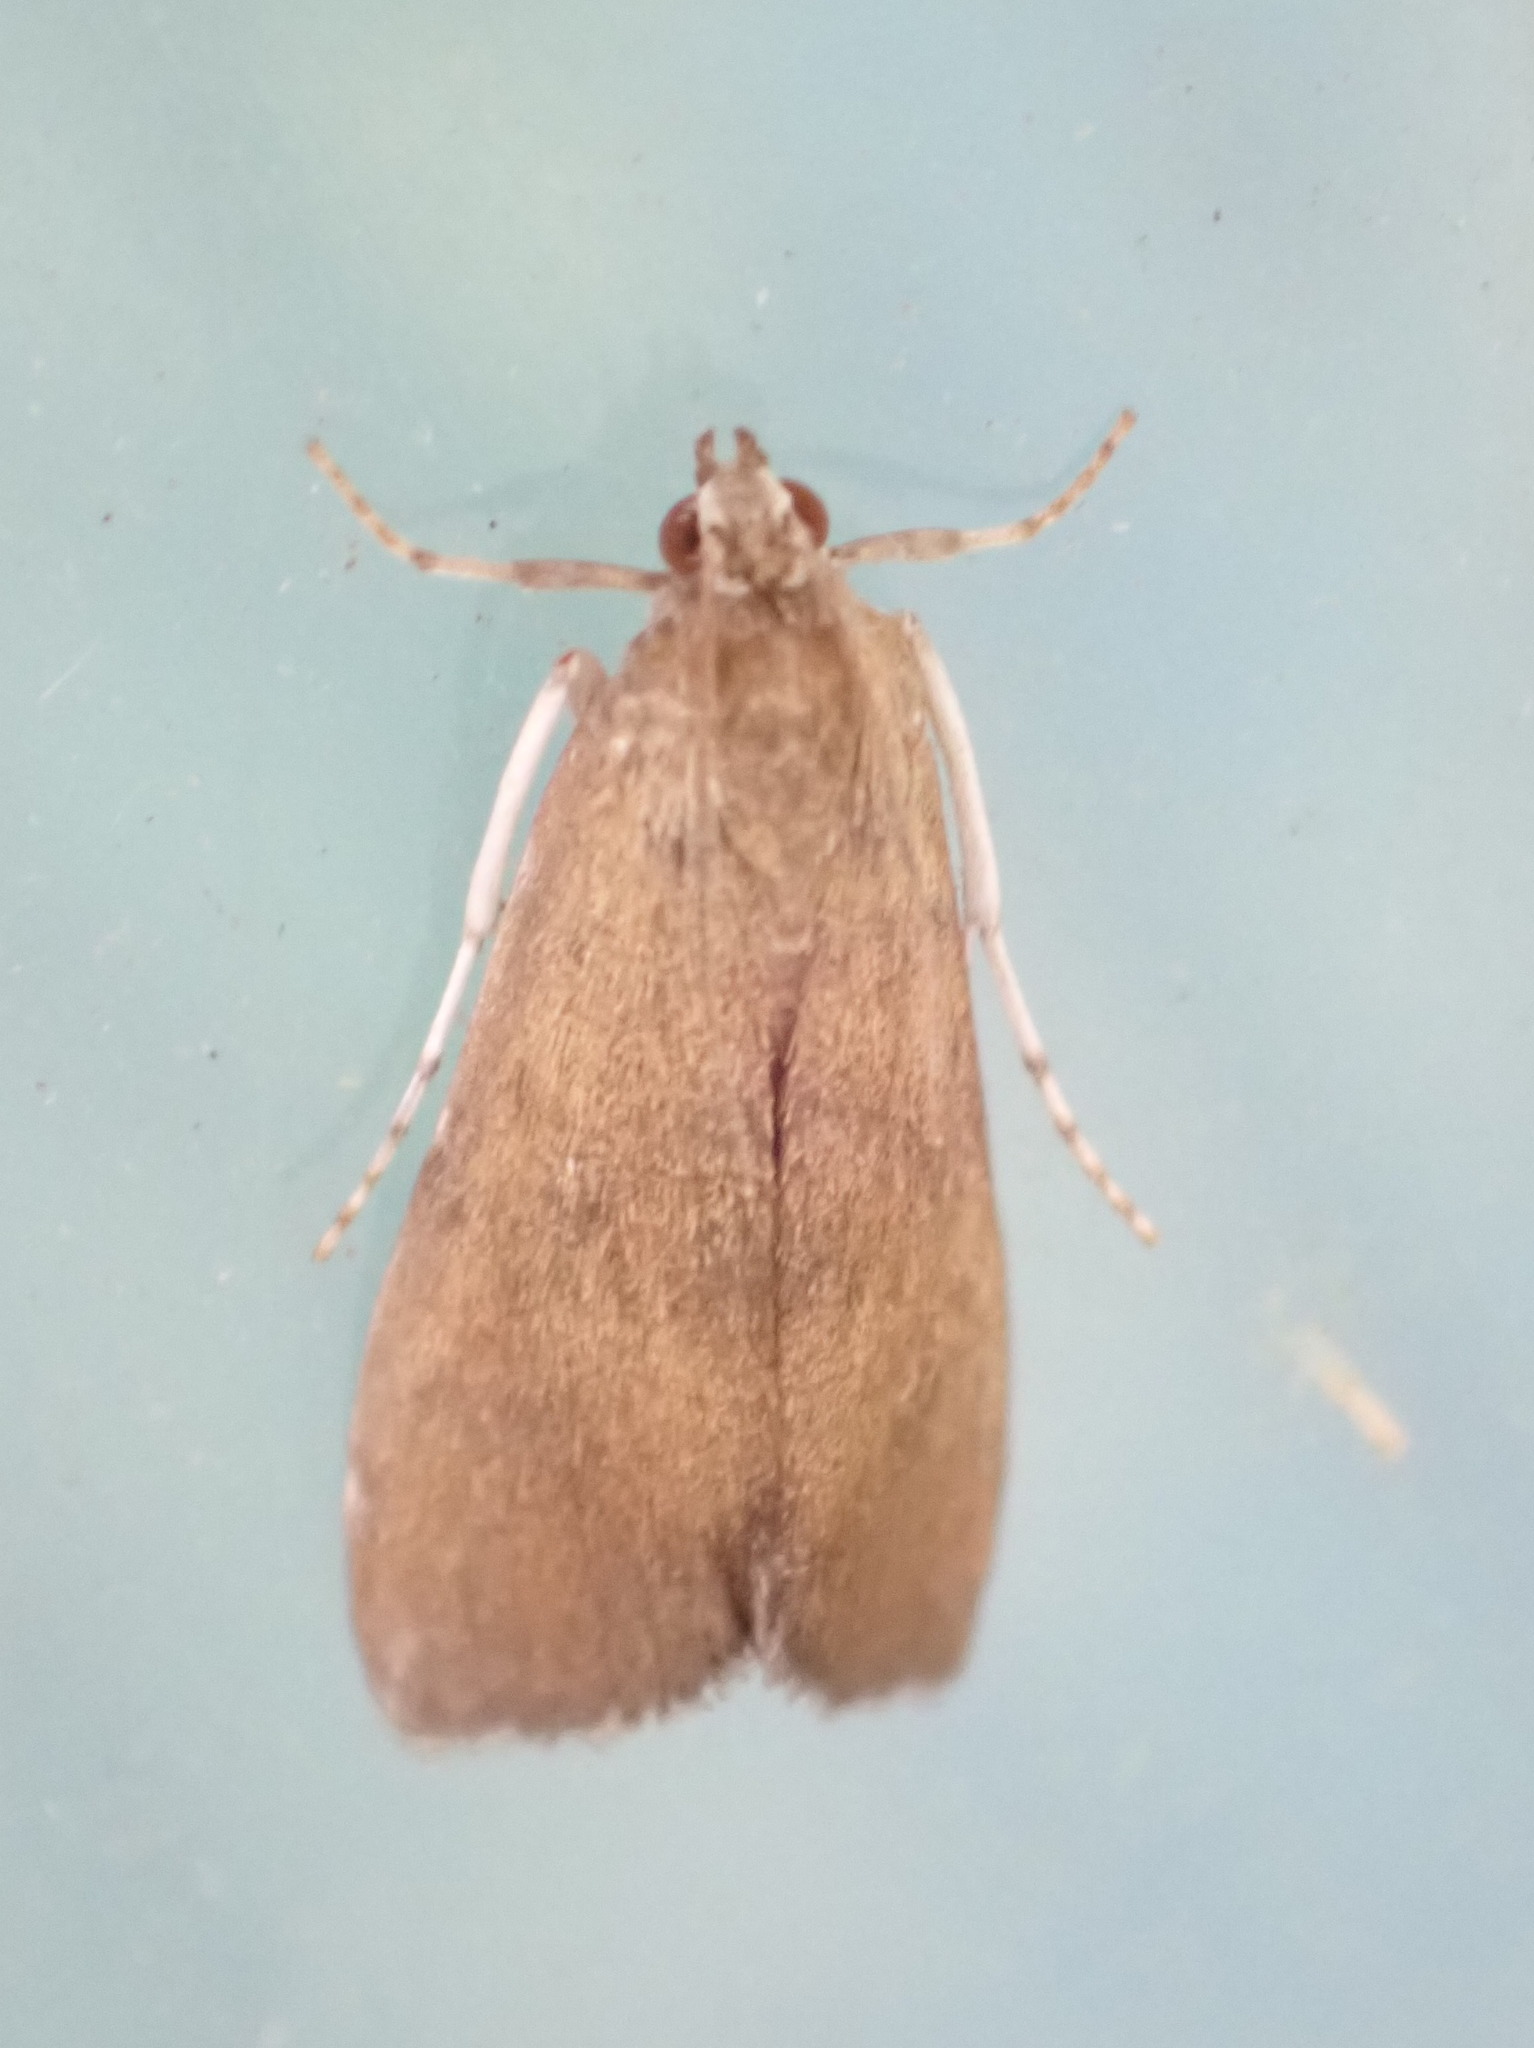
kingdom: Animalia
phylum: Arthropoda
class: Insecta
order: Lepidoptera
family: Crambidae
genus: Elophila
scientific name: Elophila gyralis
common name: Waterlily borer moth
